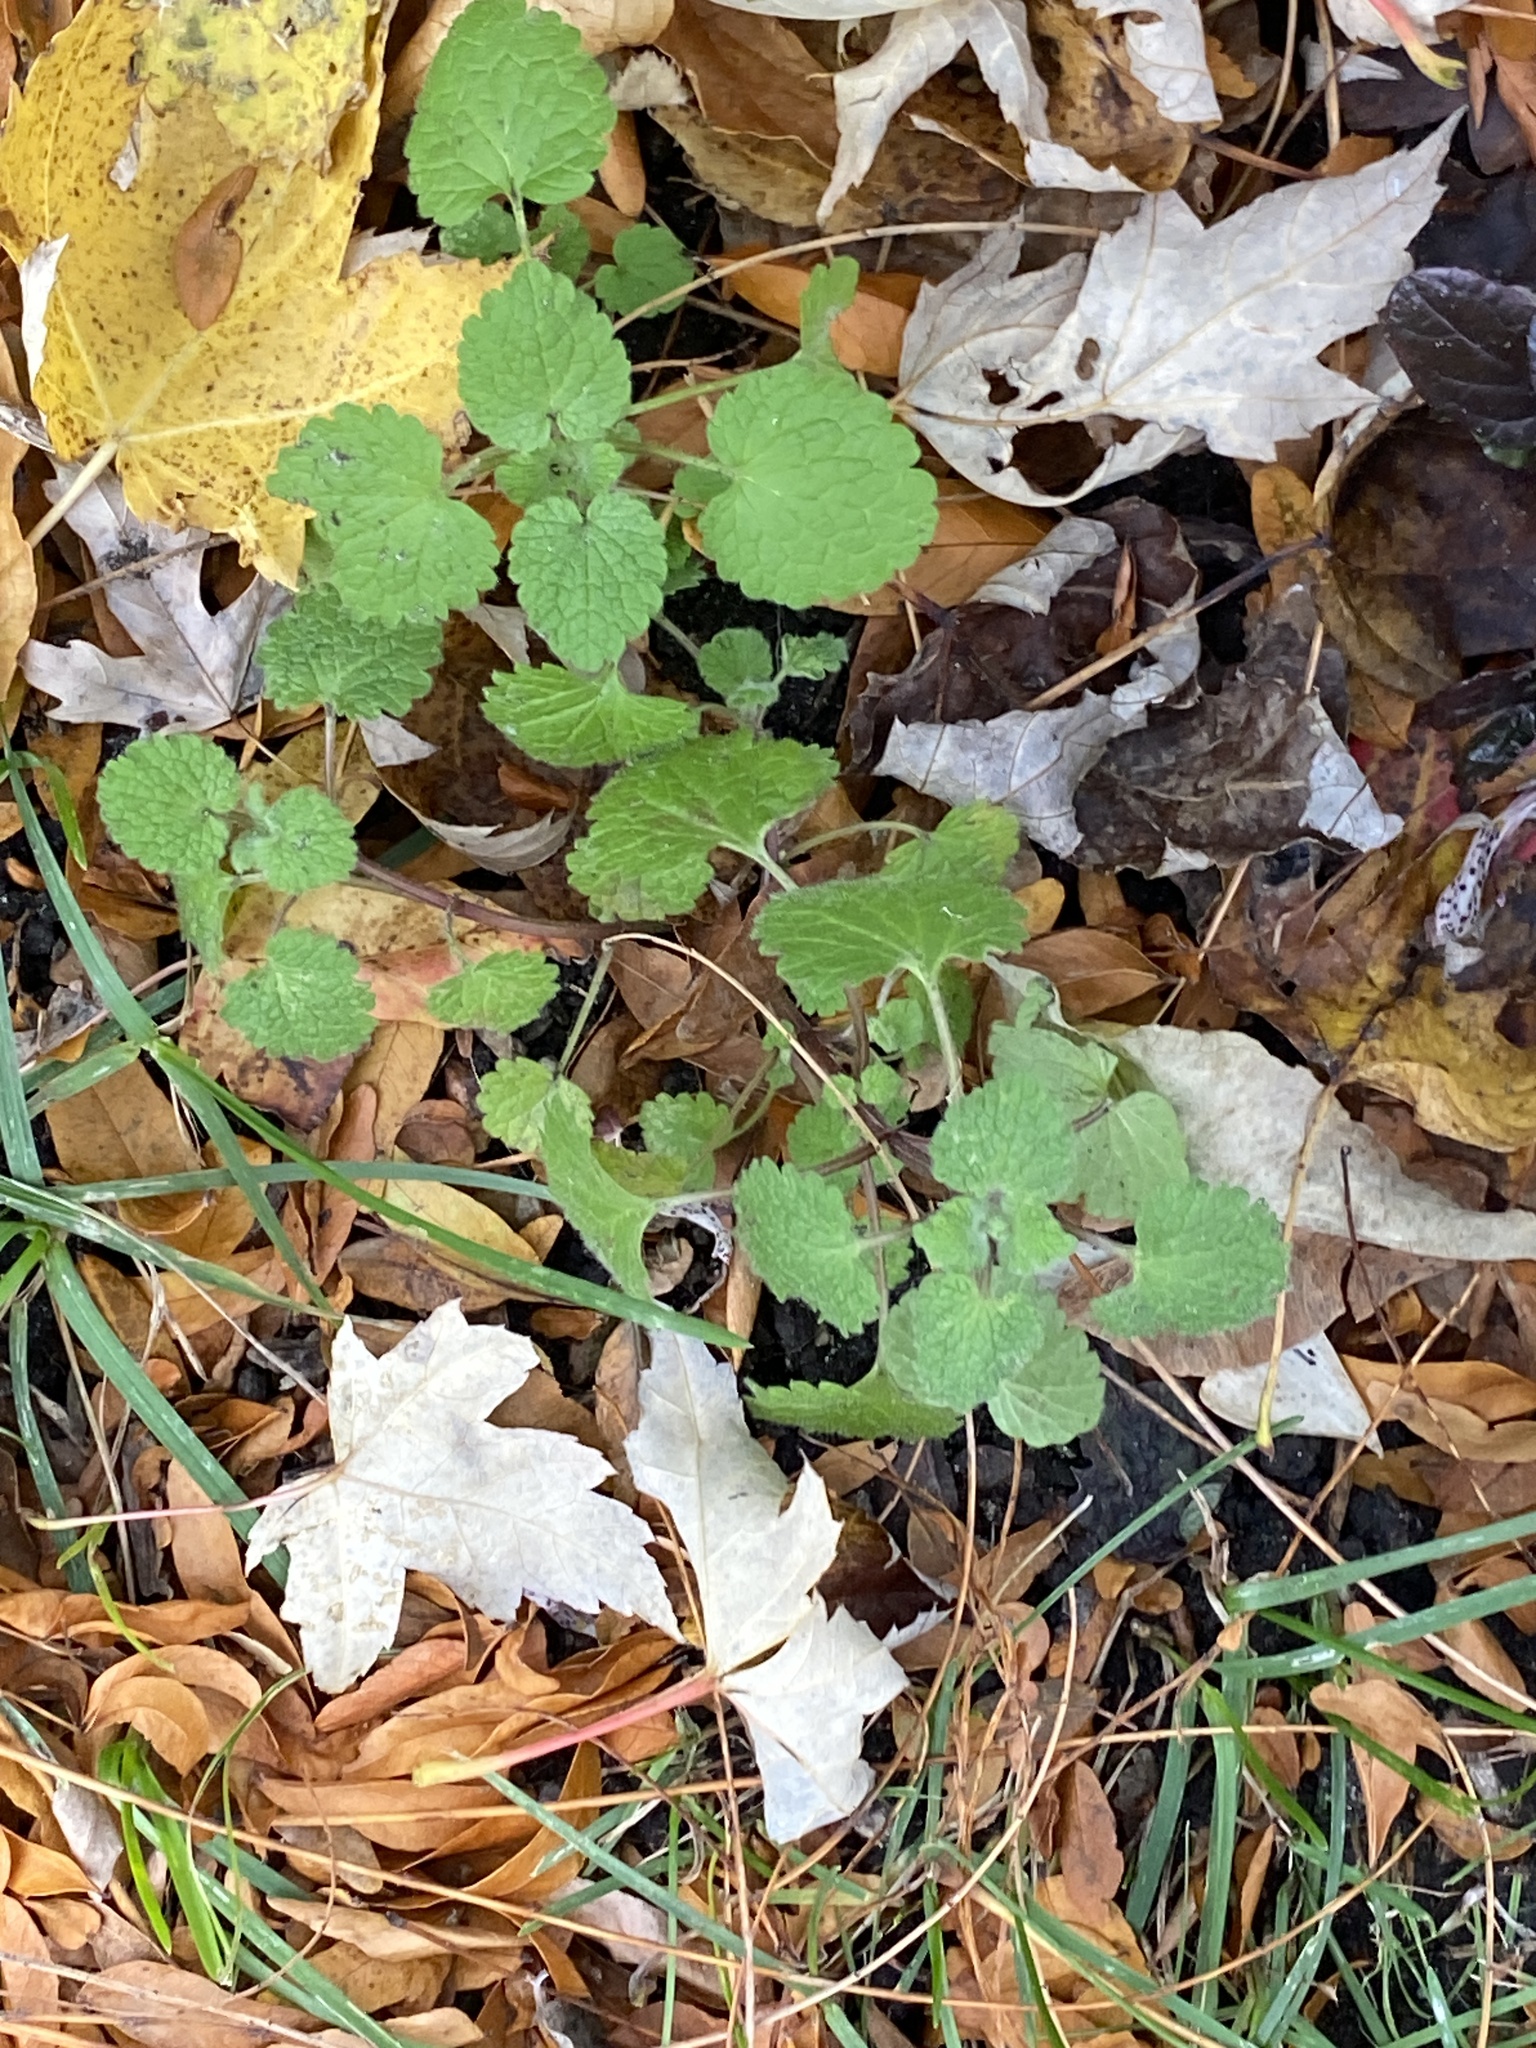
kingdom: Plantae
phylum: Tracheophyta
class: Magnoliopsida
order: Lamiales
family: Lamiaceae
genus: Lamium
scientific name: Lamium purpureum
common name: Red dead-nettle
